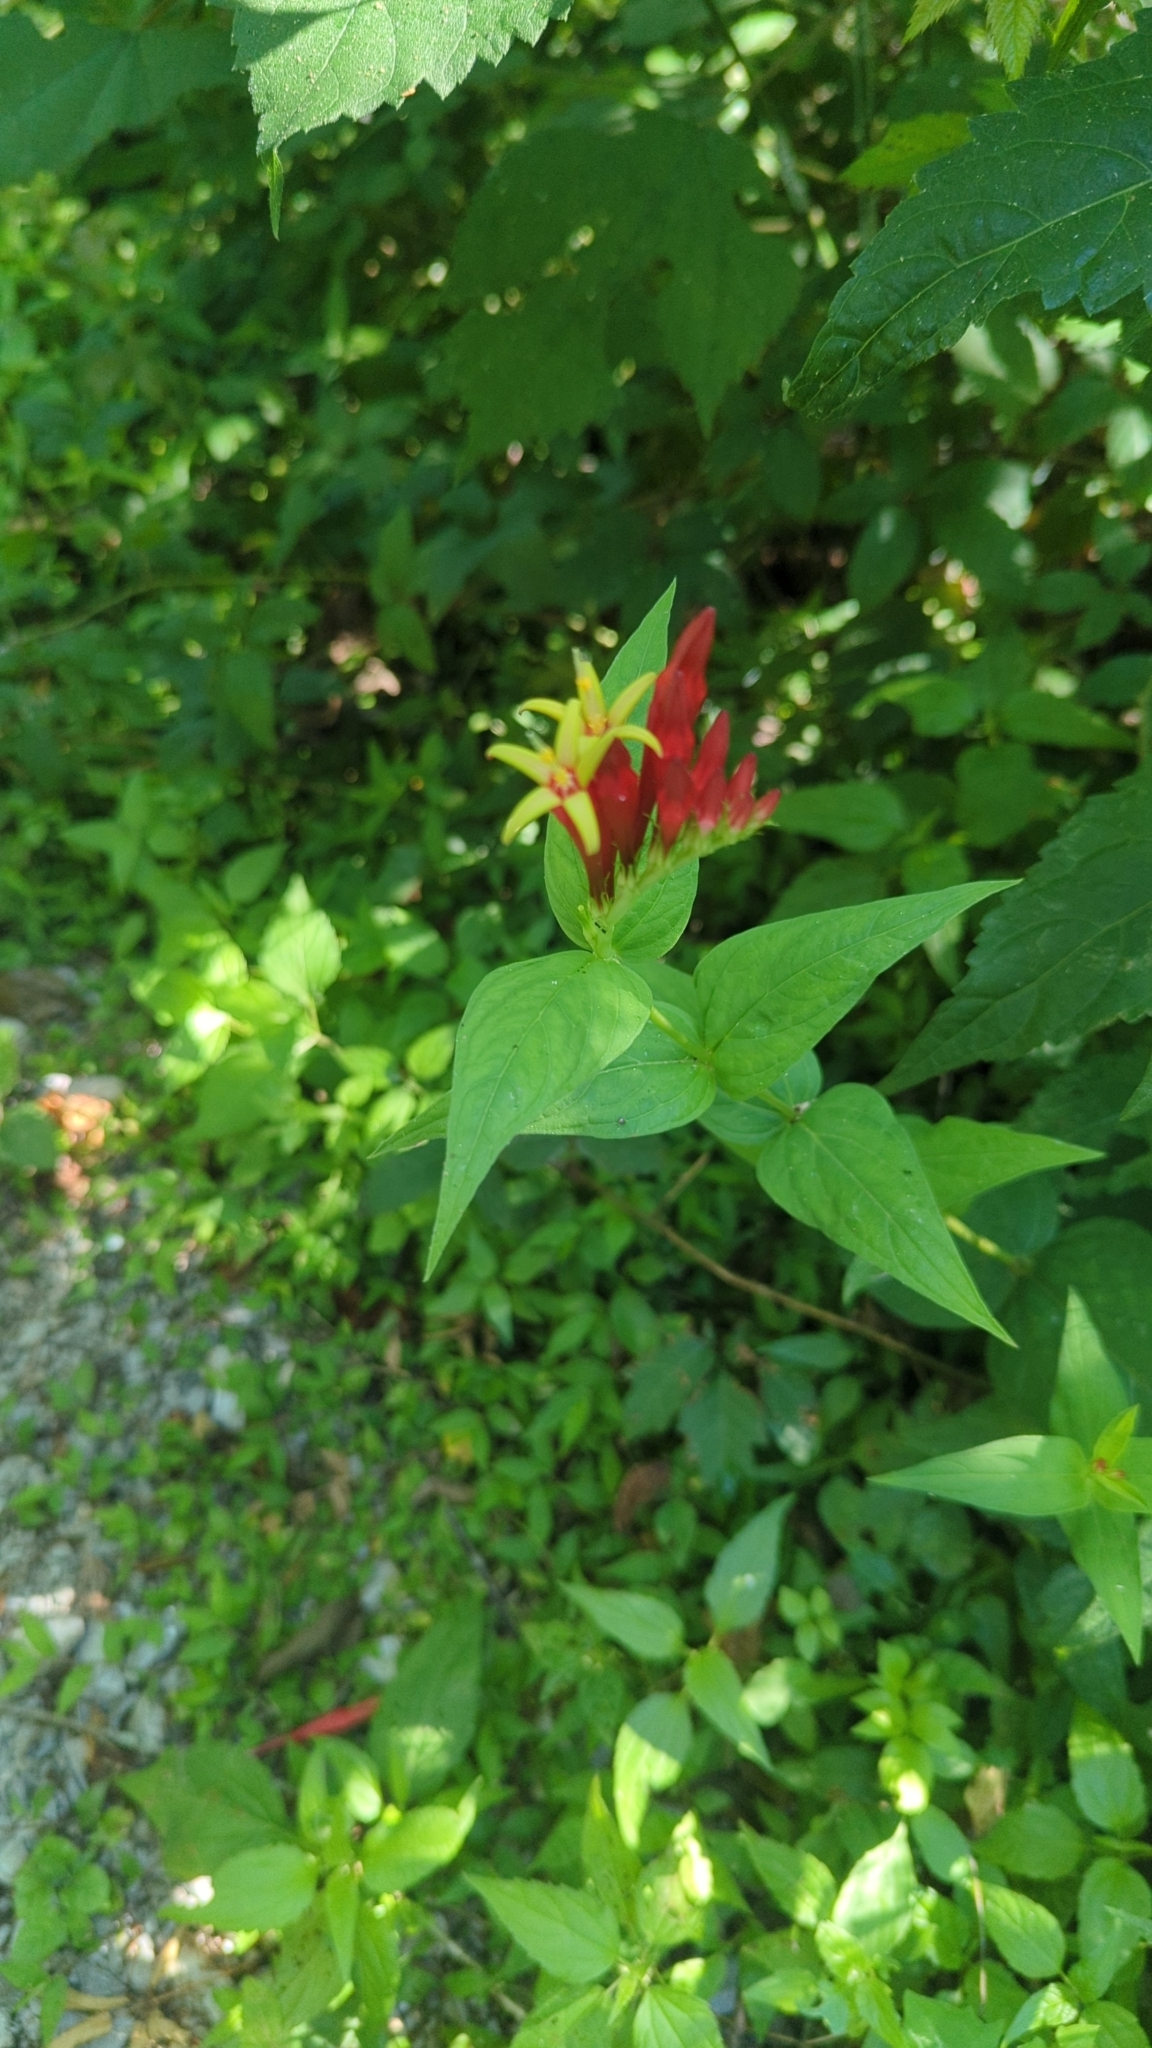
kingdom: Plantae
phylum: Tracheophyta
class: Magnoliopsida
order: Gentianales
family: Loganiaceae
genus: Spigelia
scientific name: Spigelia marilandica
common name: Indian-pink
